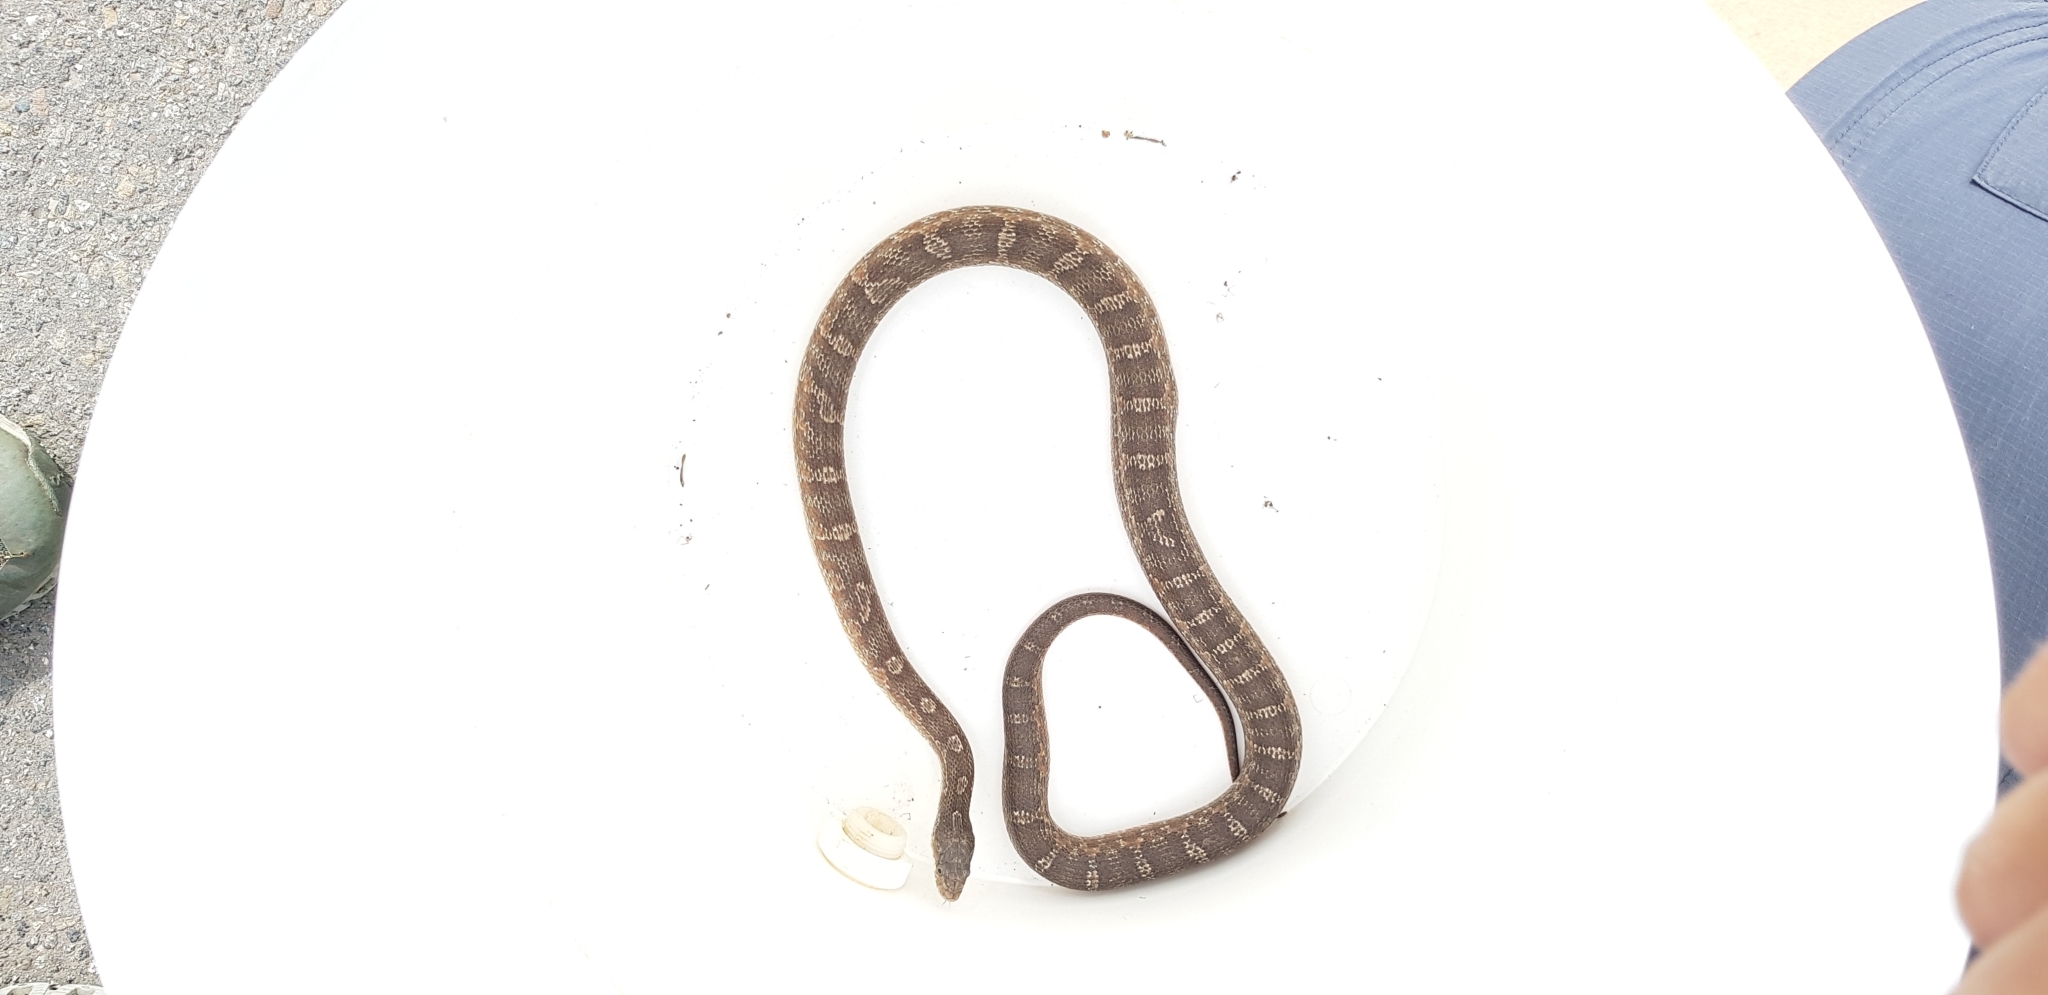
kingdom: Animalia
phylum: Chordata
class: Squamata
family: Colubridae
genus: Pantherophis
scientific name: Pantherophis
